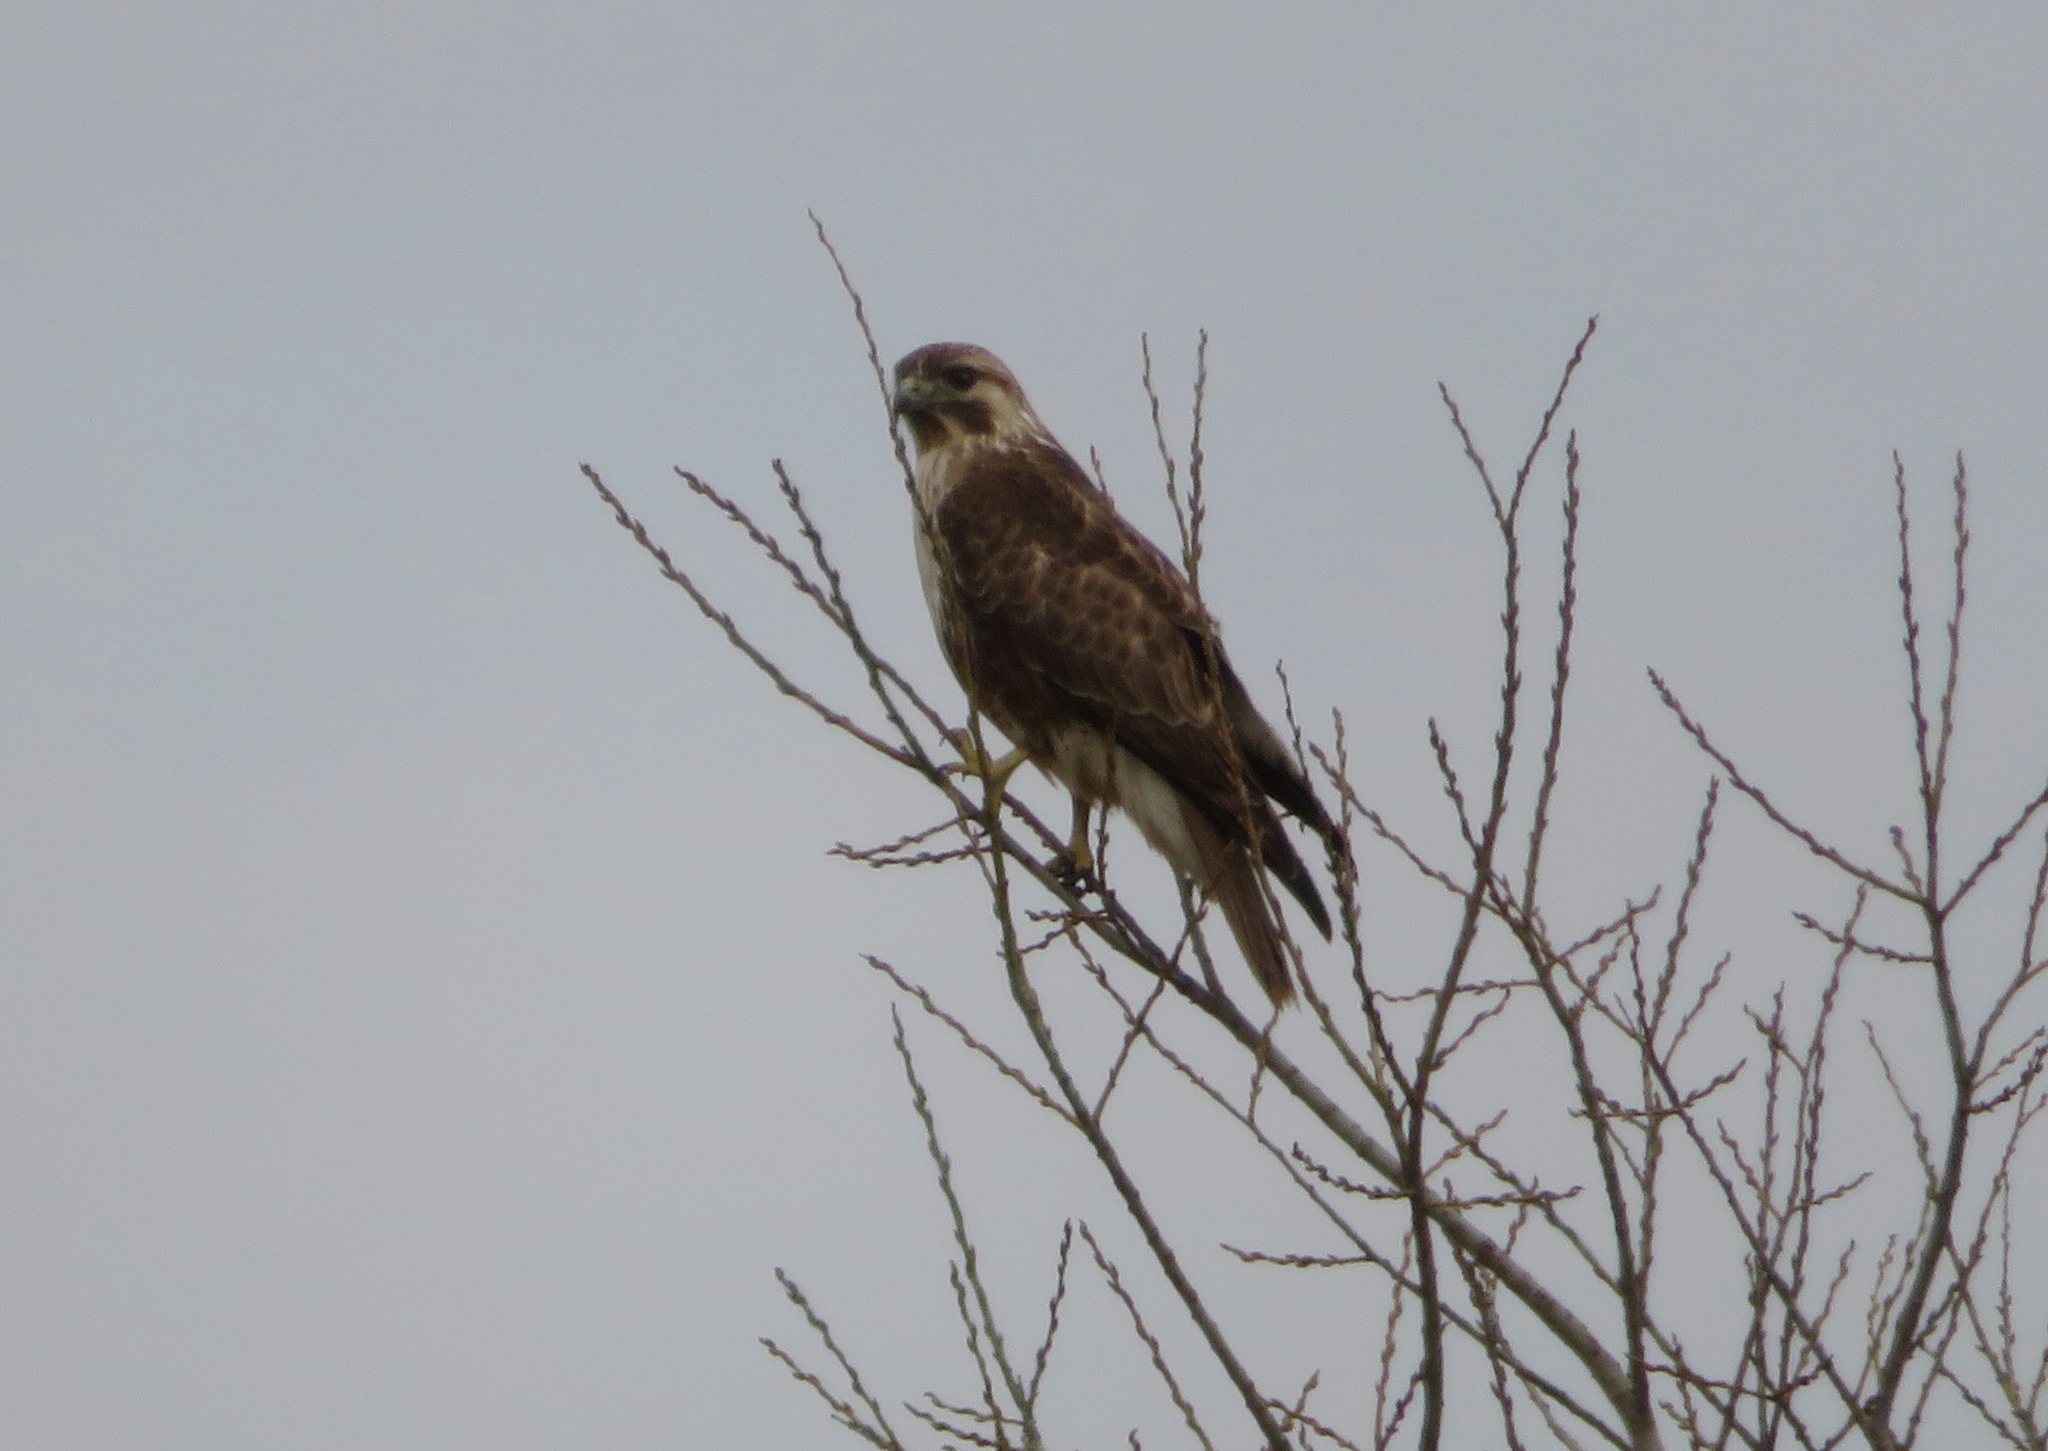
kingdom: Animalia
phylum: Chordata
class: Aves
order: Accipitriformes
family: Accipitridae
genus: Buteo
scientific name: Buteo japonicus
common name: Eastern buzzard
